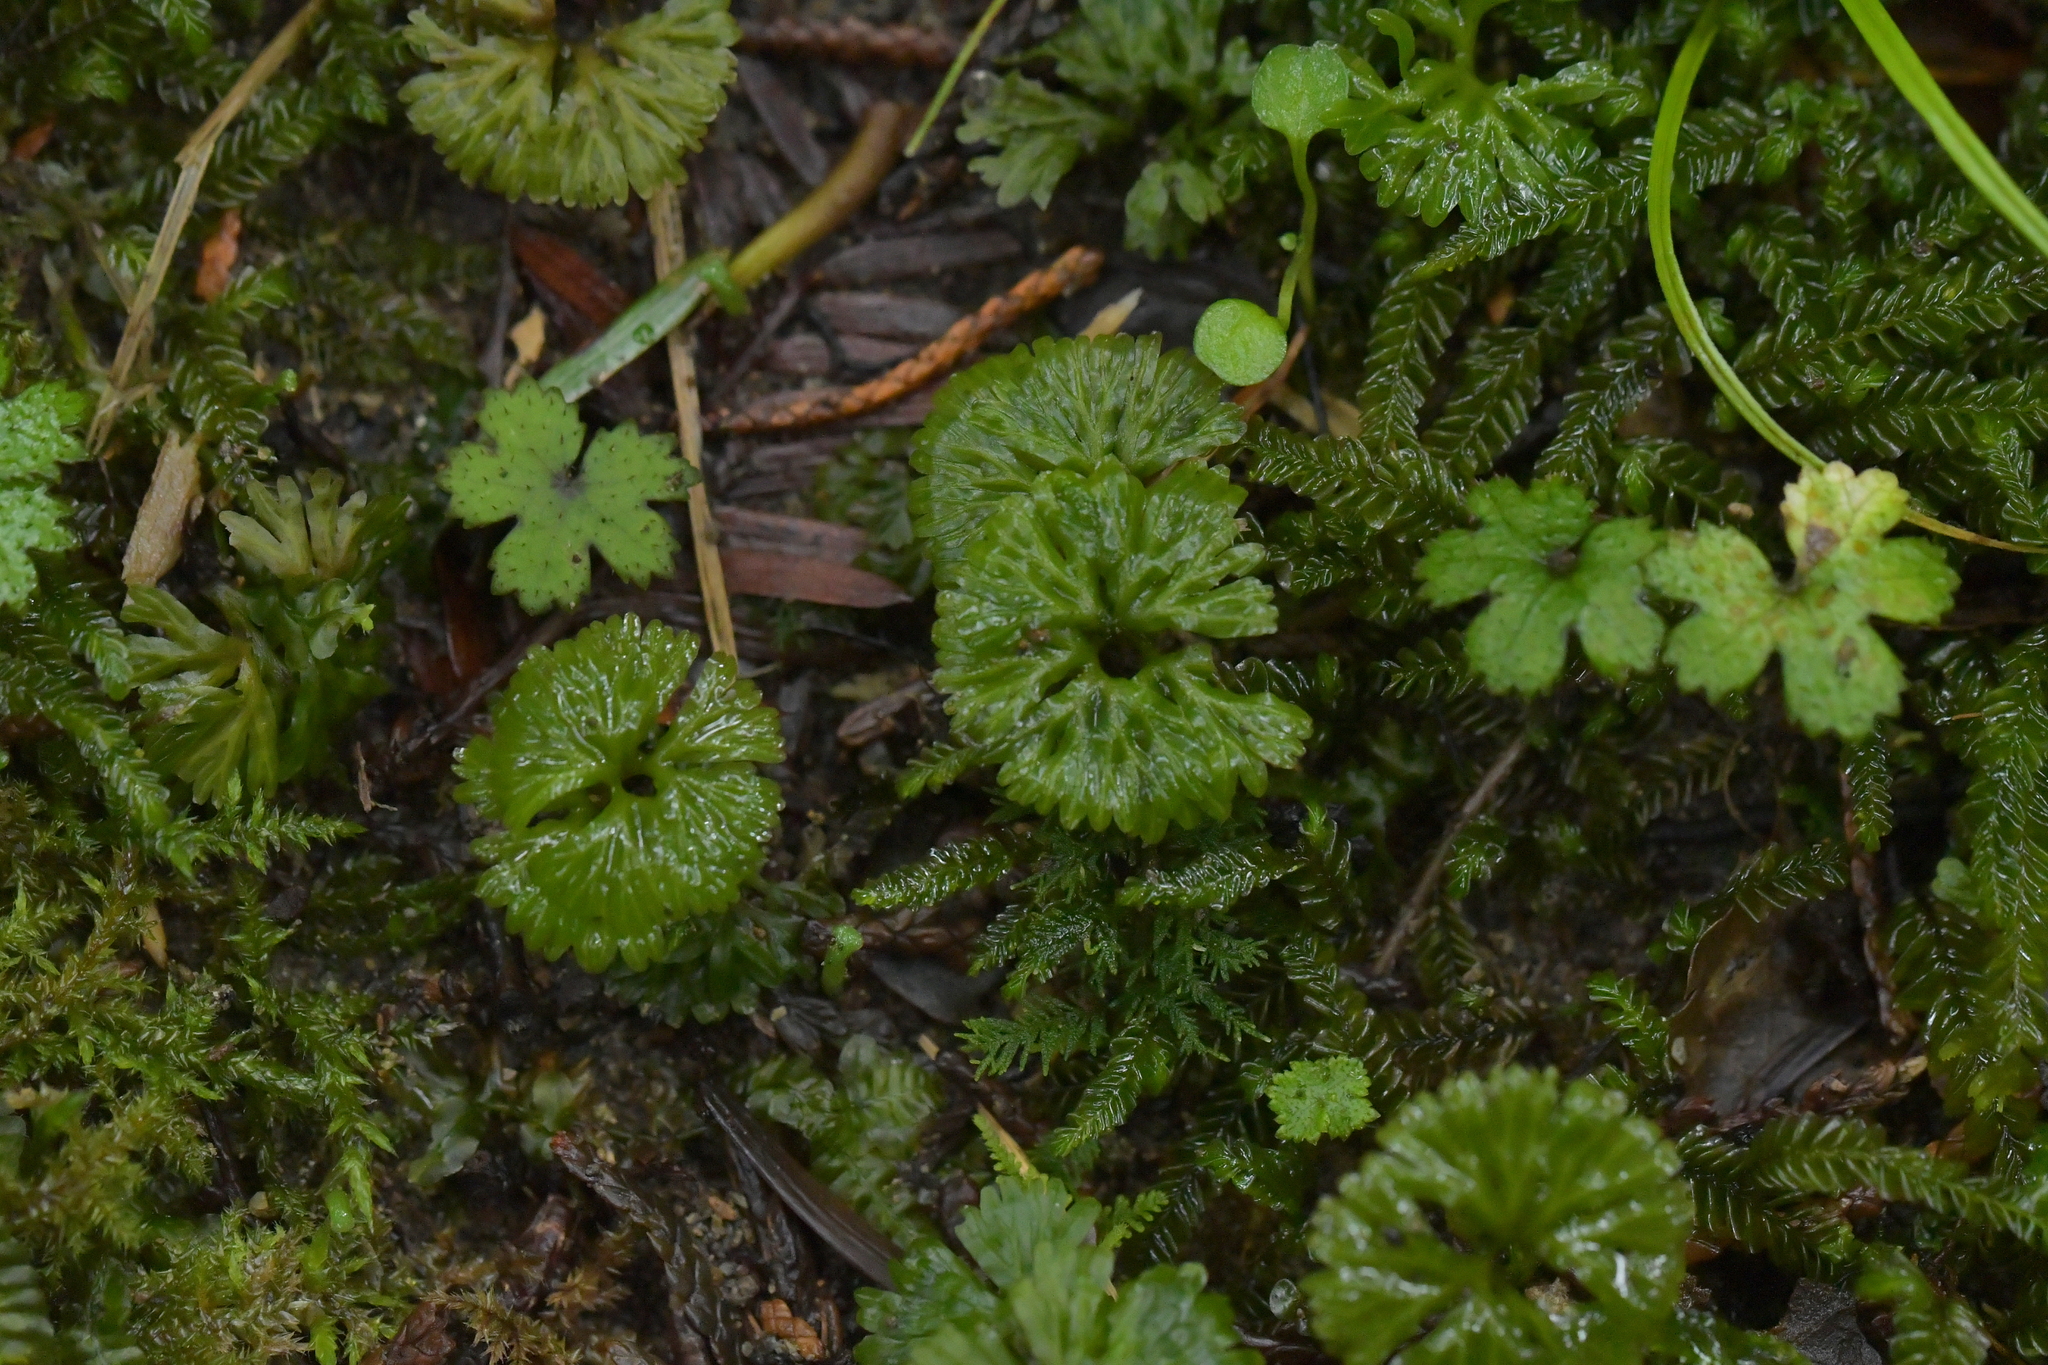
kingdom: Plantae
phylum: Marchantiophyta
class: Jungermanniopsida
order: Pallaviciniales
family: Hymenophytaceae
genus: Hymenophyton
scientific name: Hymenophyton flabellatum
